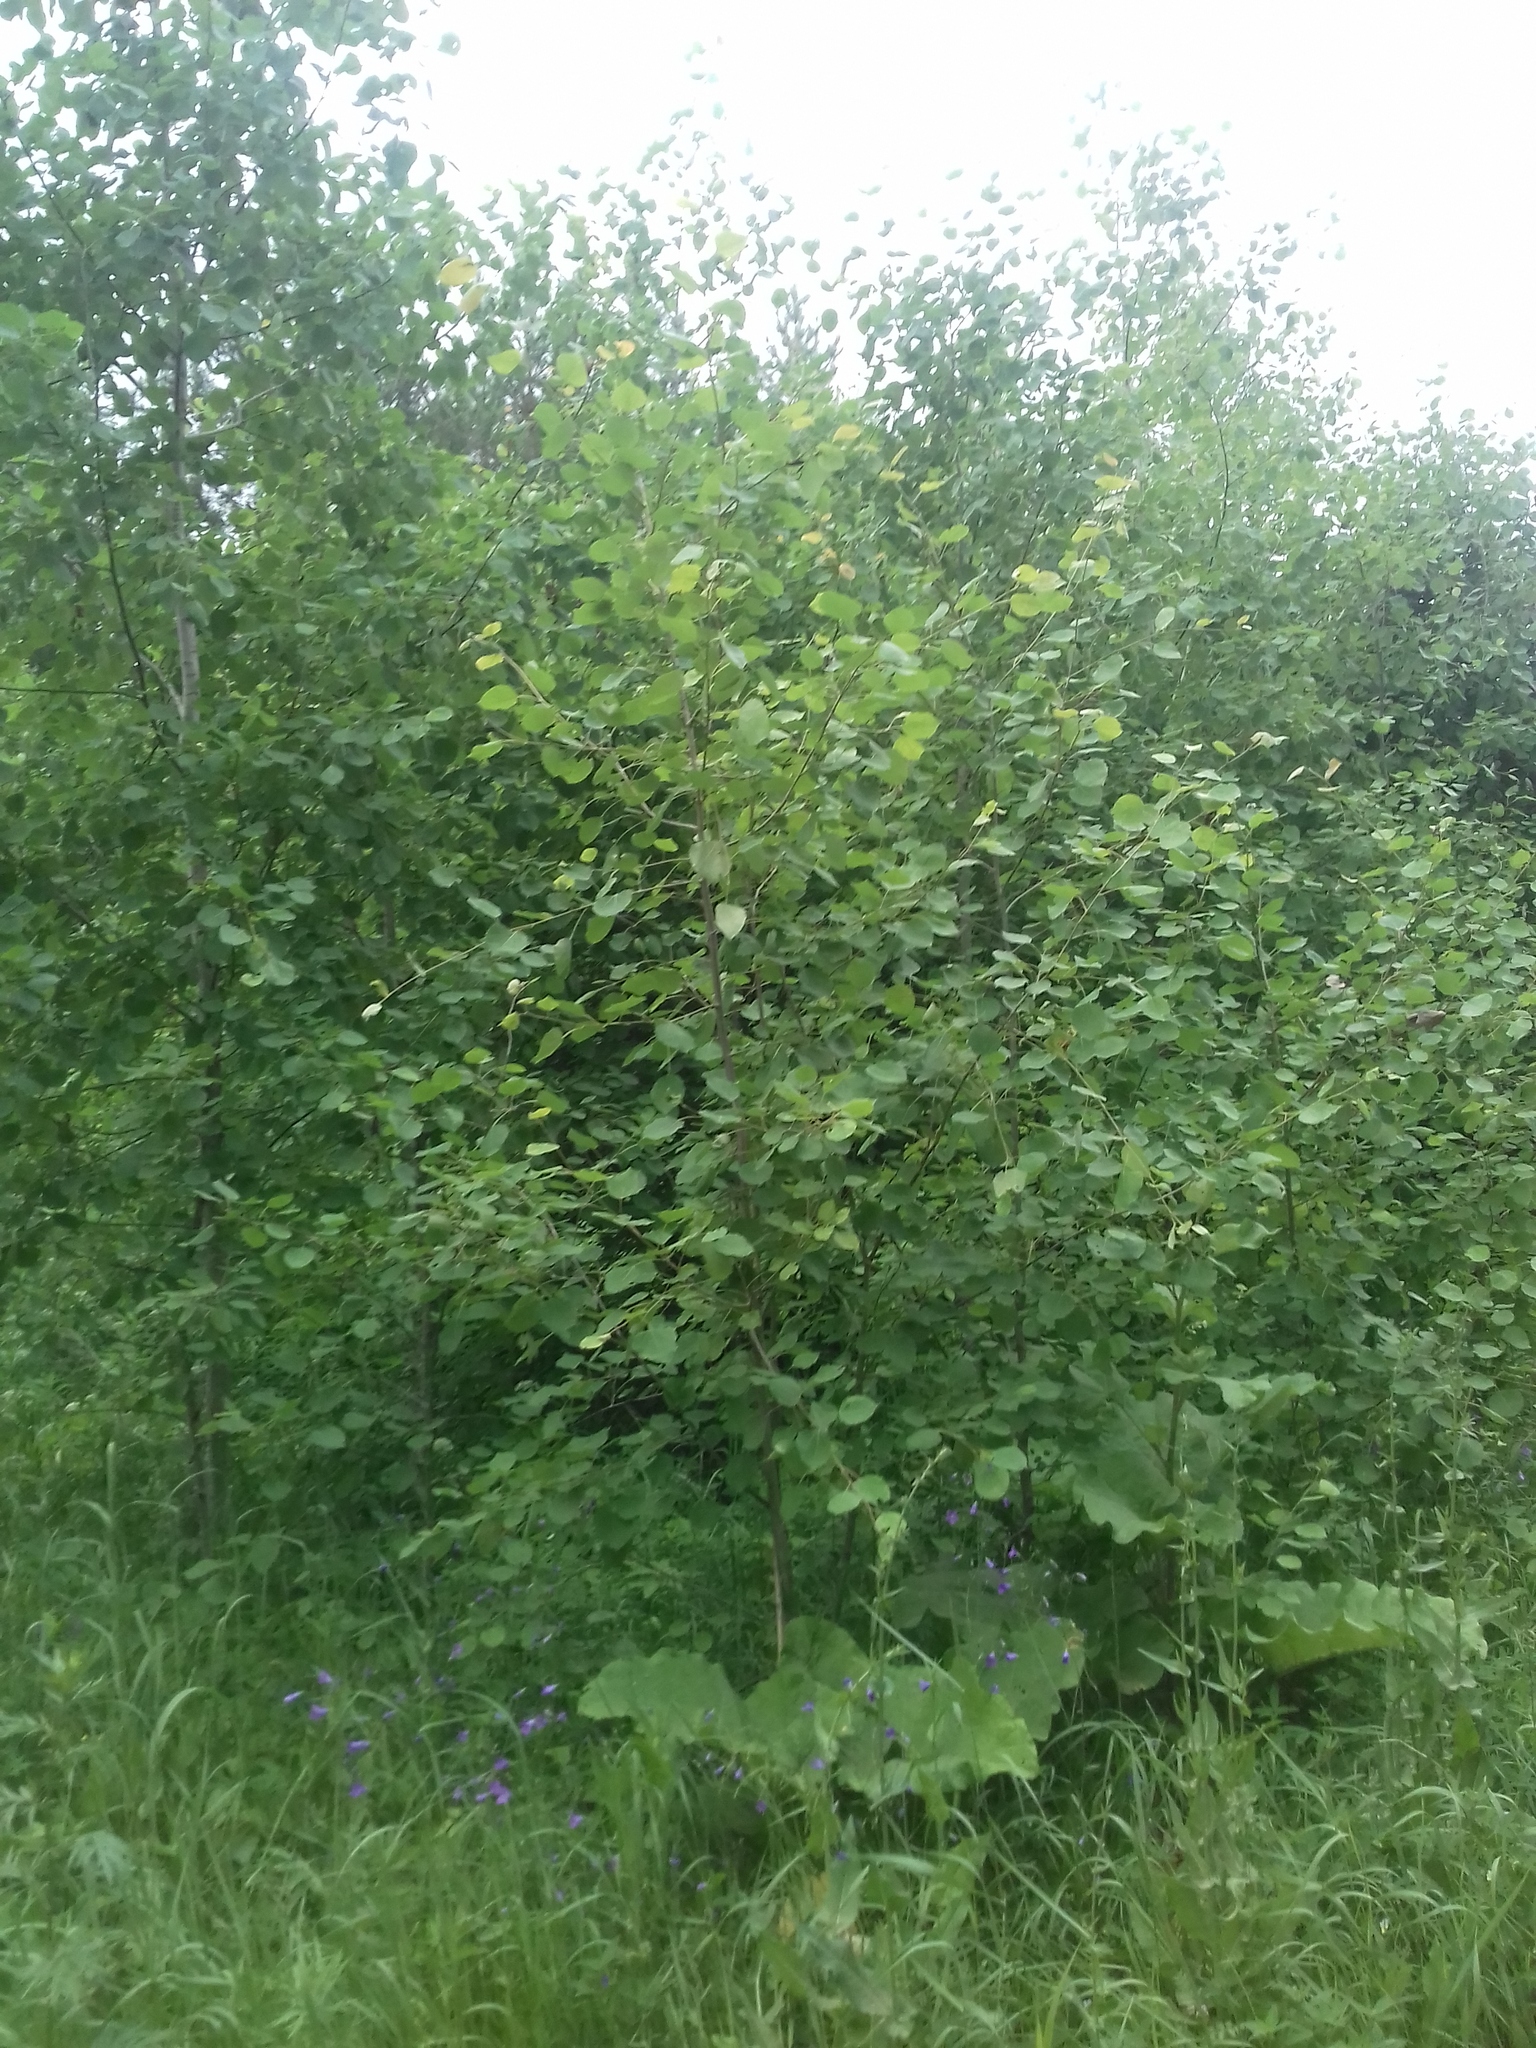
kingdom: Plantae
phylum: Tracheophyta
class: Magnoliopsida
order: Malpighiales
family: Salicaceae
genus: Populus
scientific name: Populus tremula
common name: European aspen
